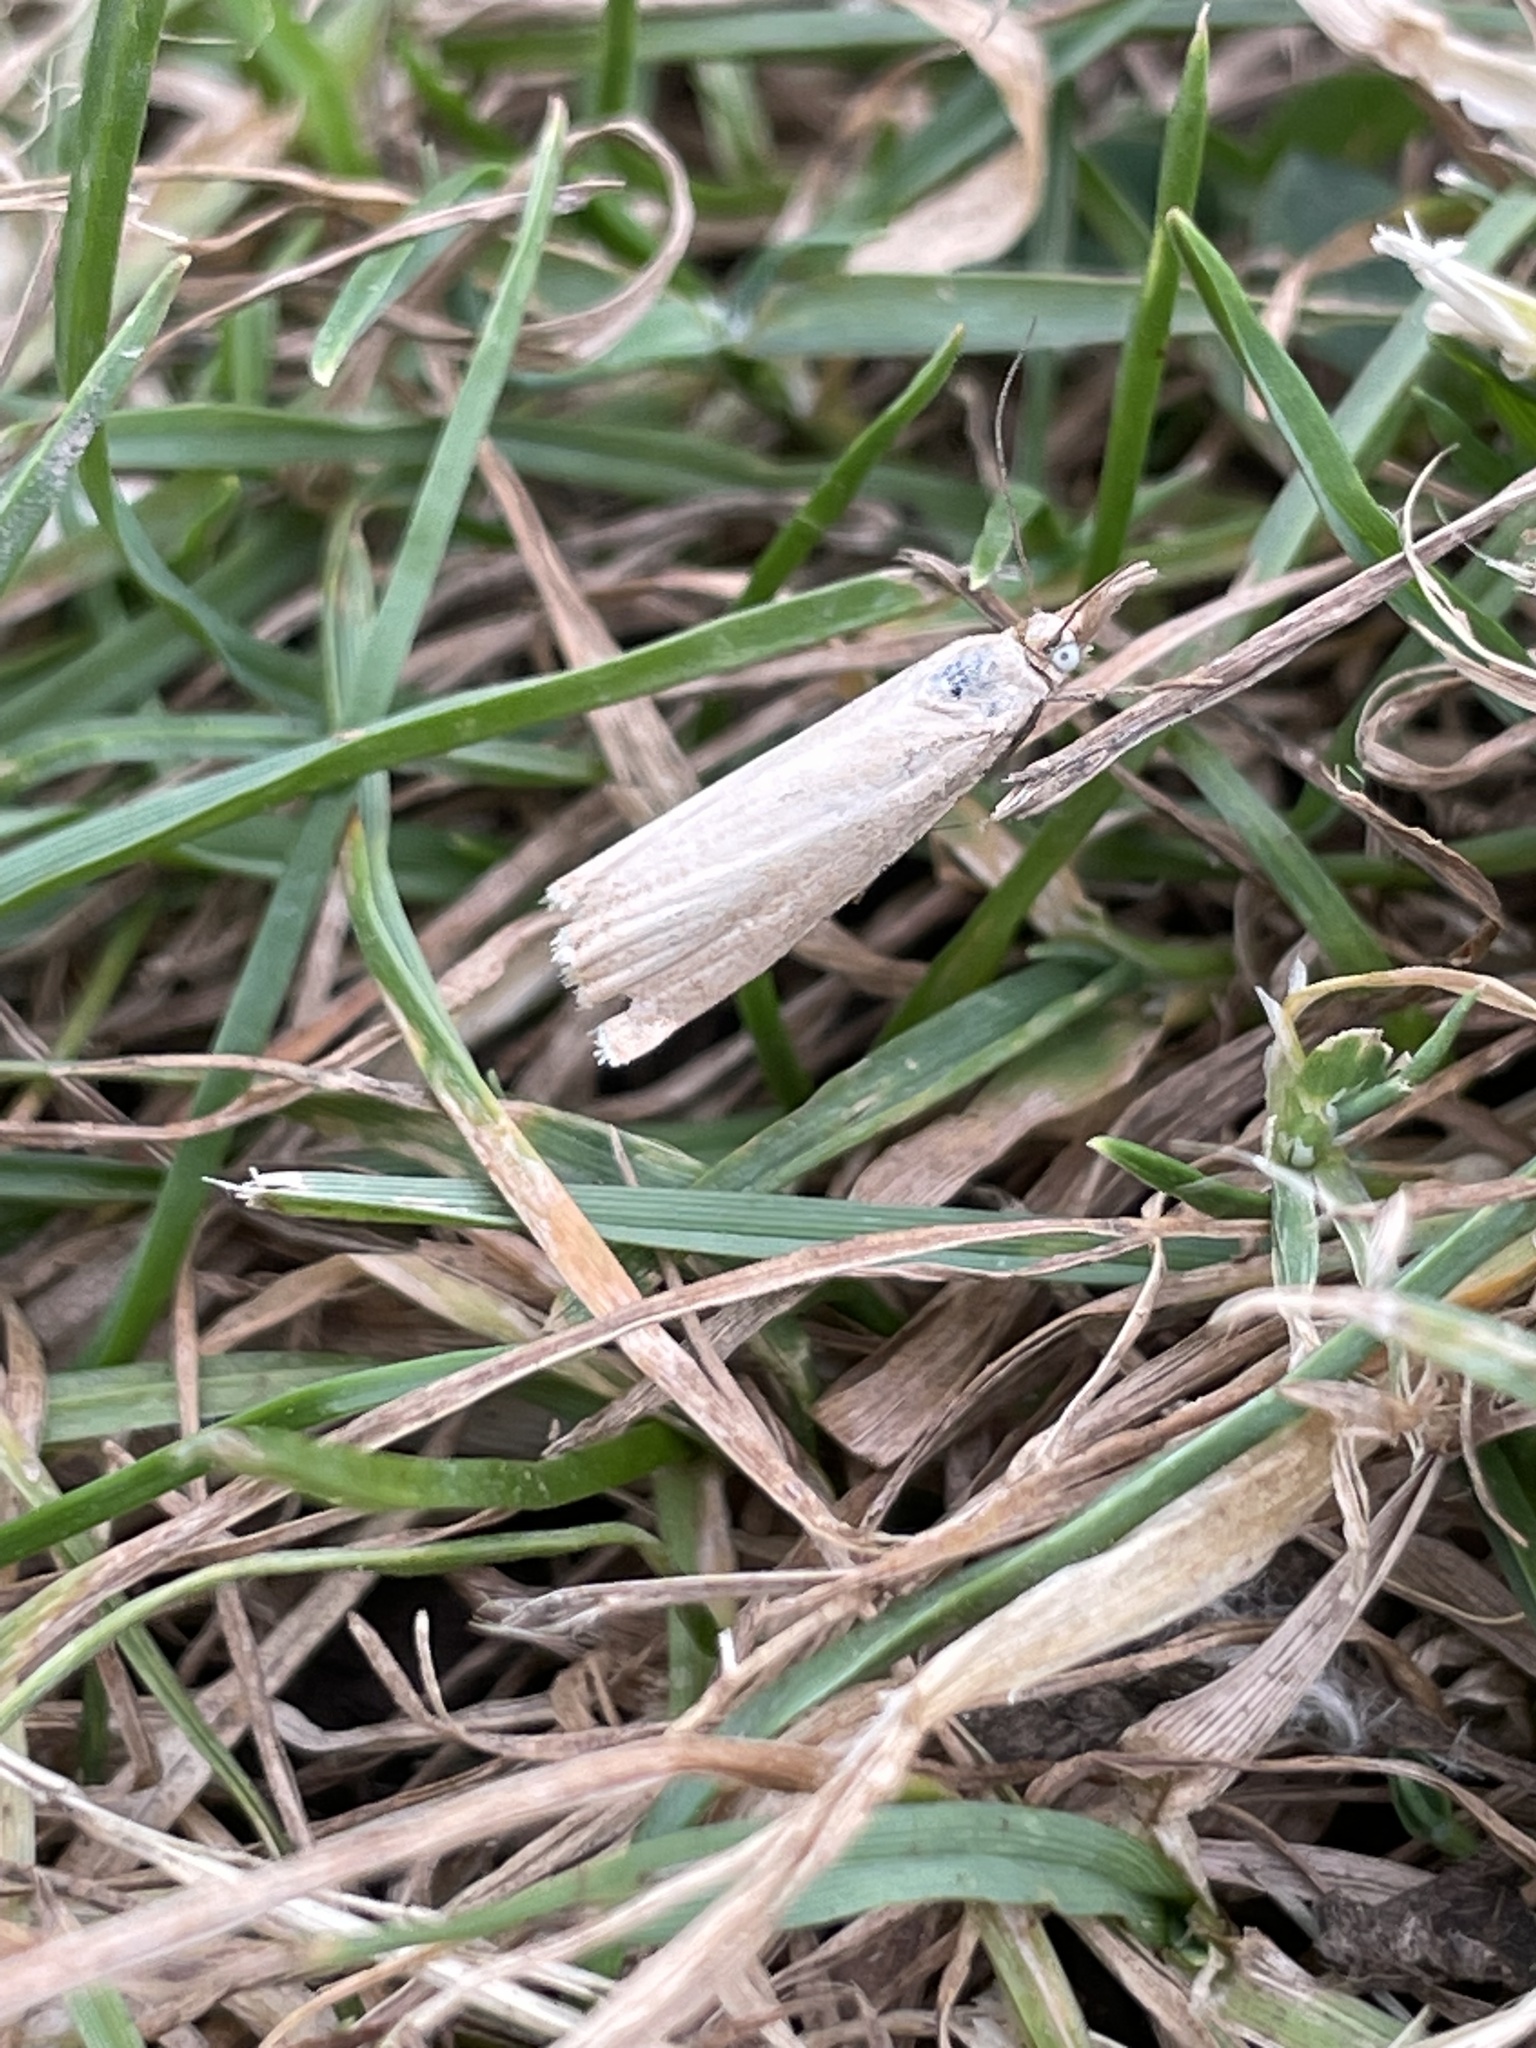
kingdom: Animalia
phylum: Arthropoda
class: Insecta
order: Lepidoptera
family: Crambidae
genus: Chrysoteuchia
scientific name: Chrysoteuchia culmella
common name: Garden grass-veneer
